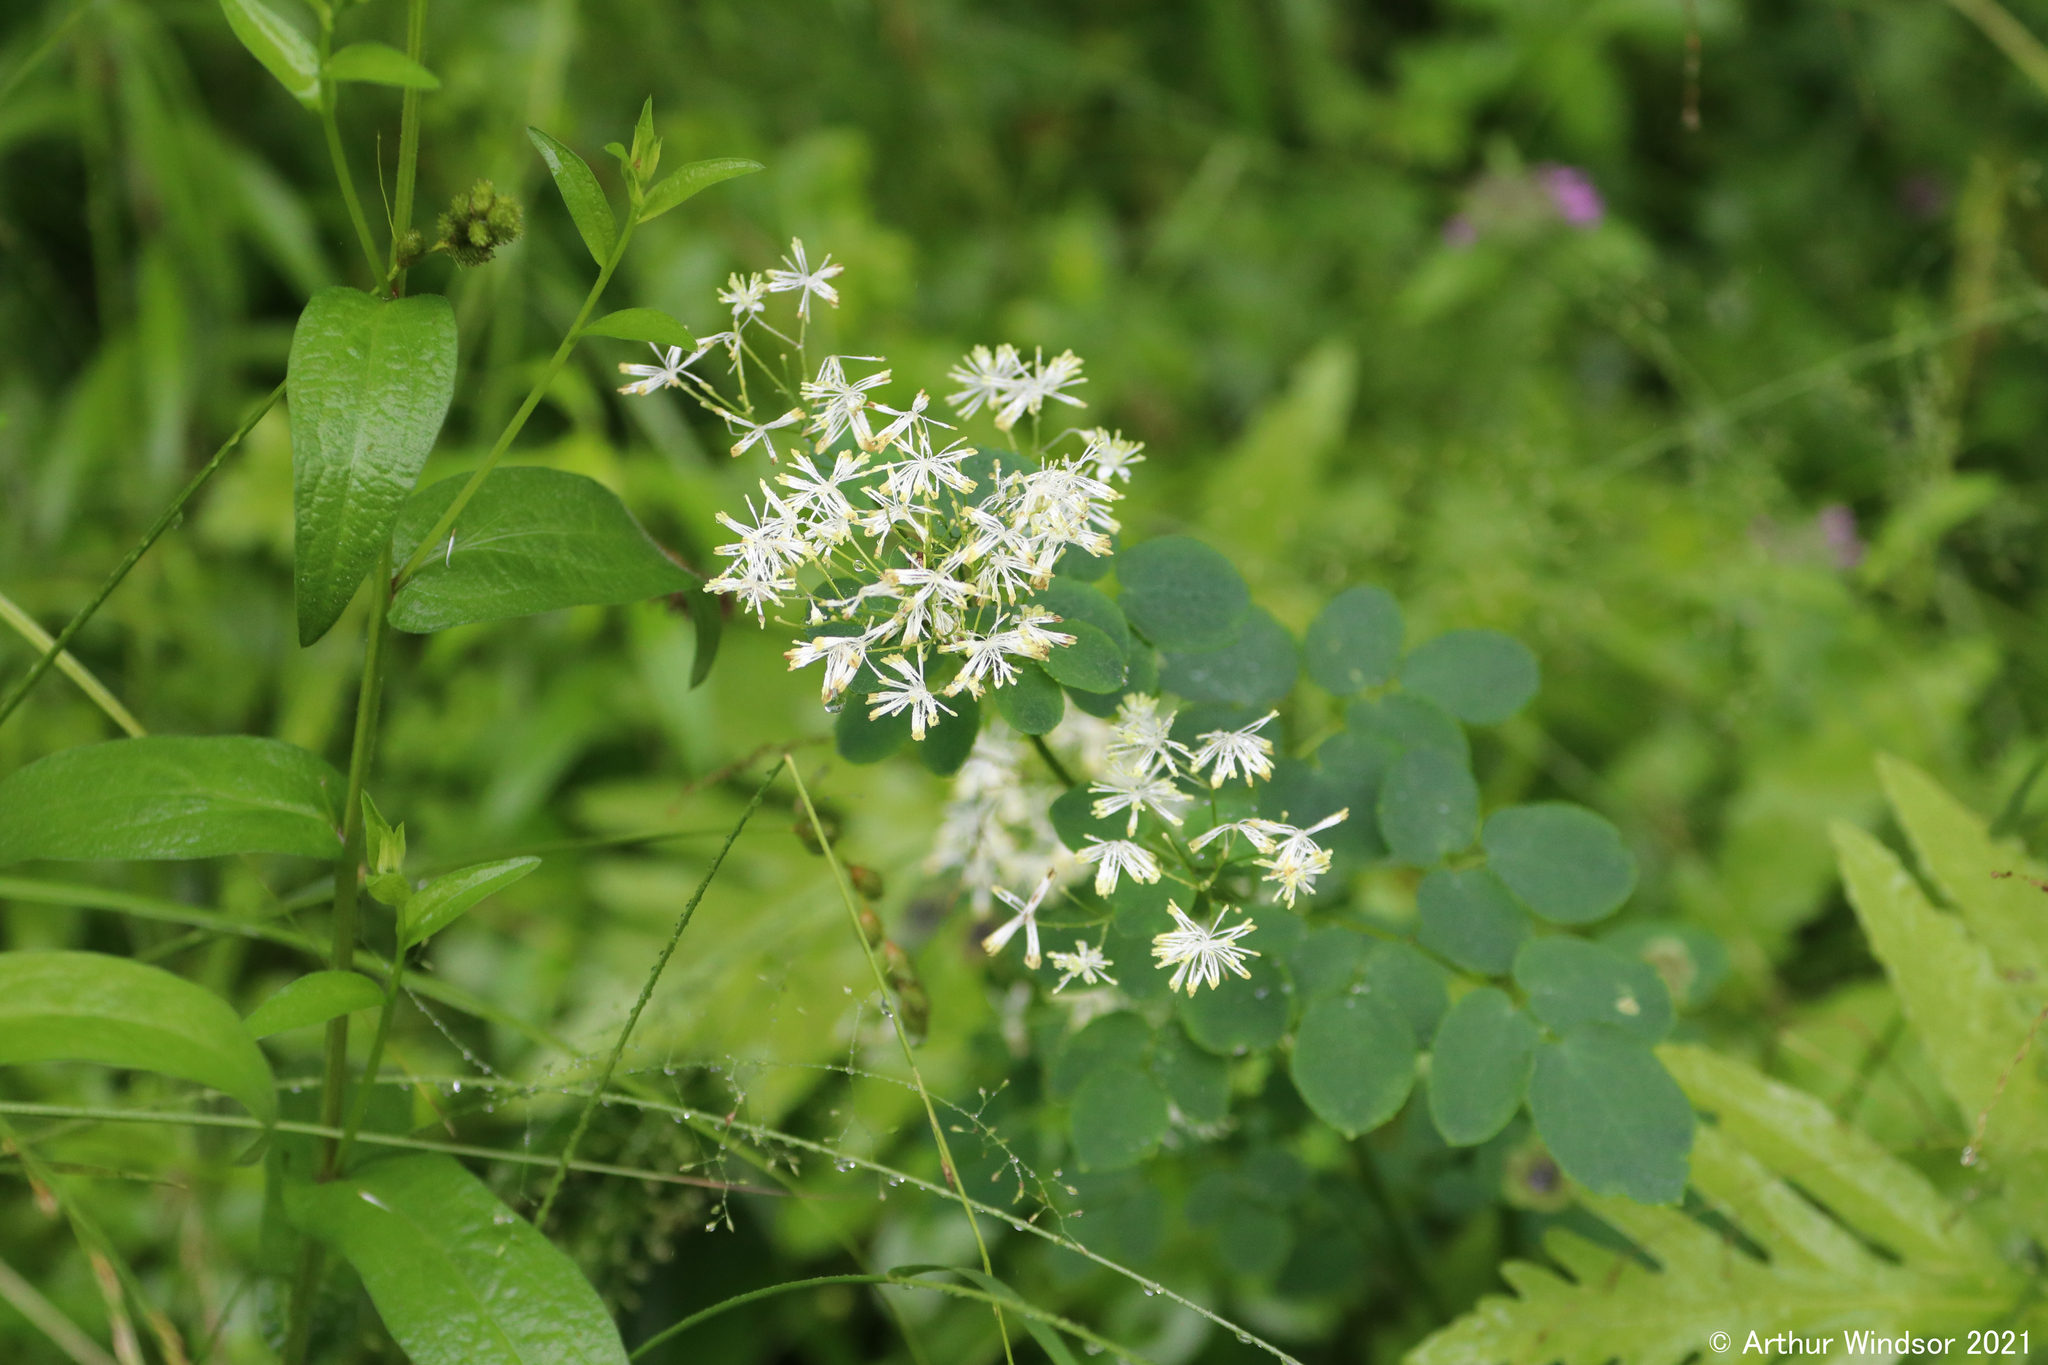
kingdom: Plantae
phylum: Tracheophyta
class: Magnoliopsida
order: Ranunculales
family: Ranunculaceae
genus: Thalictrum
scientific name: Thalictrum pubescens
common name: King-of-the-meadow
